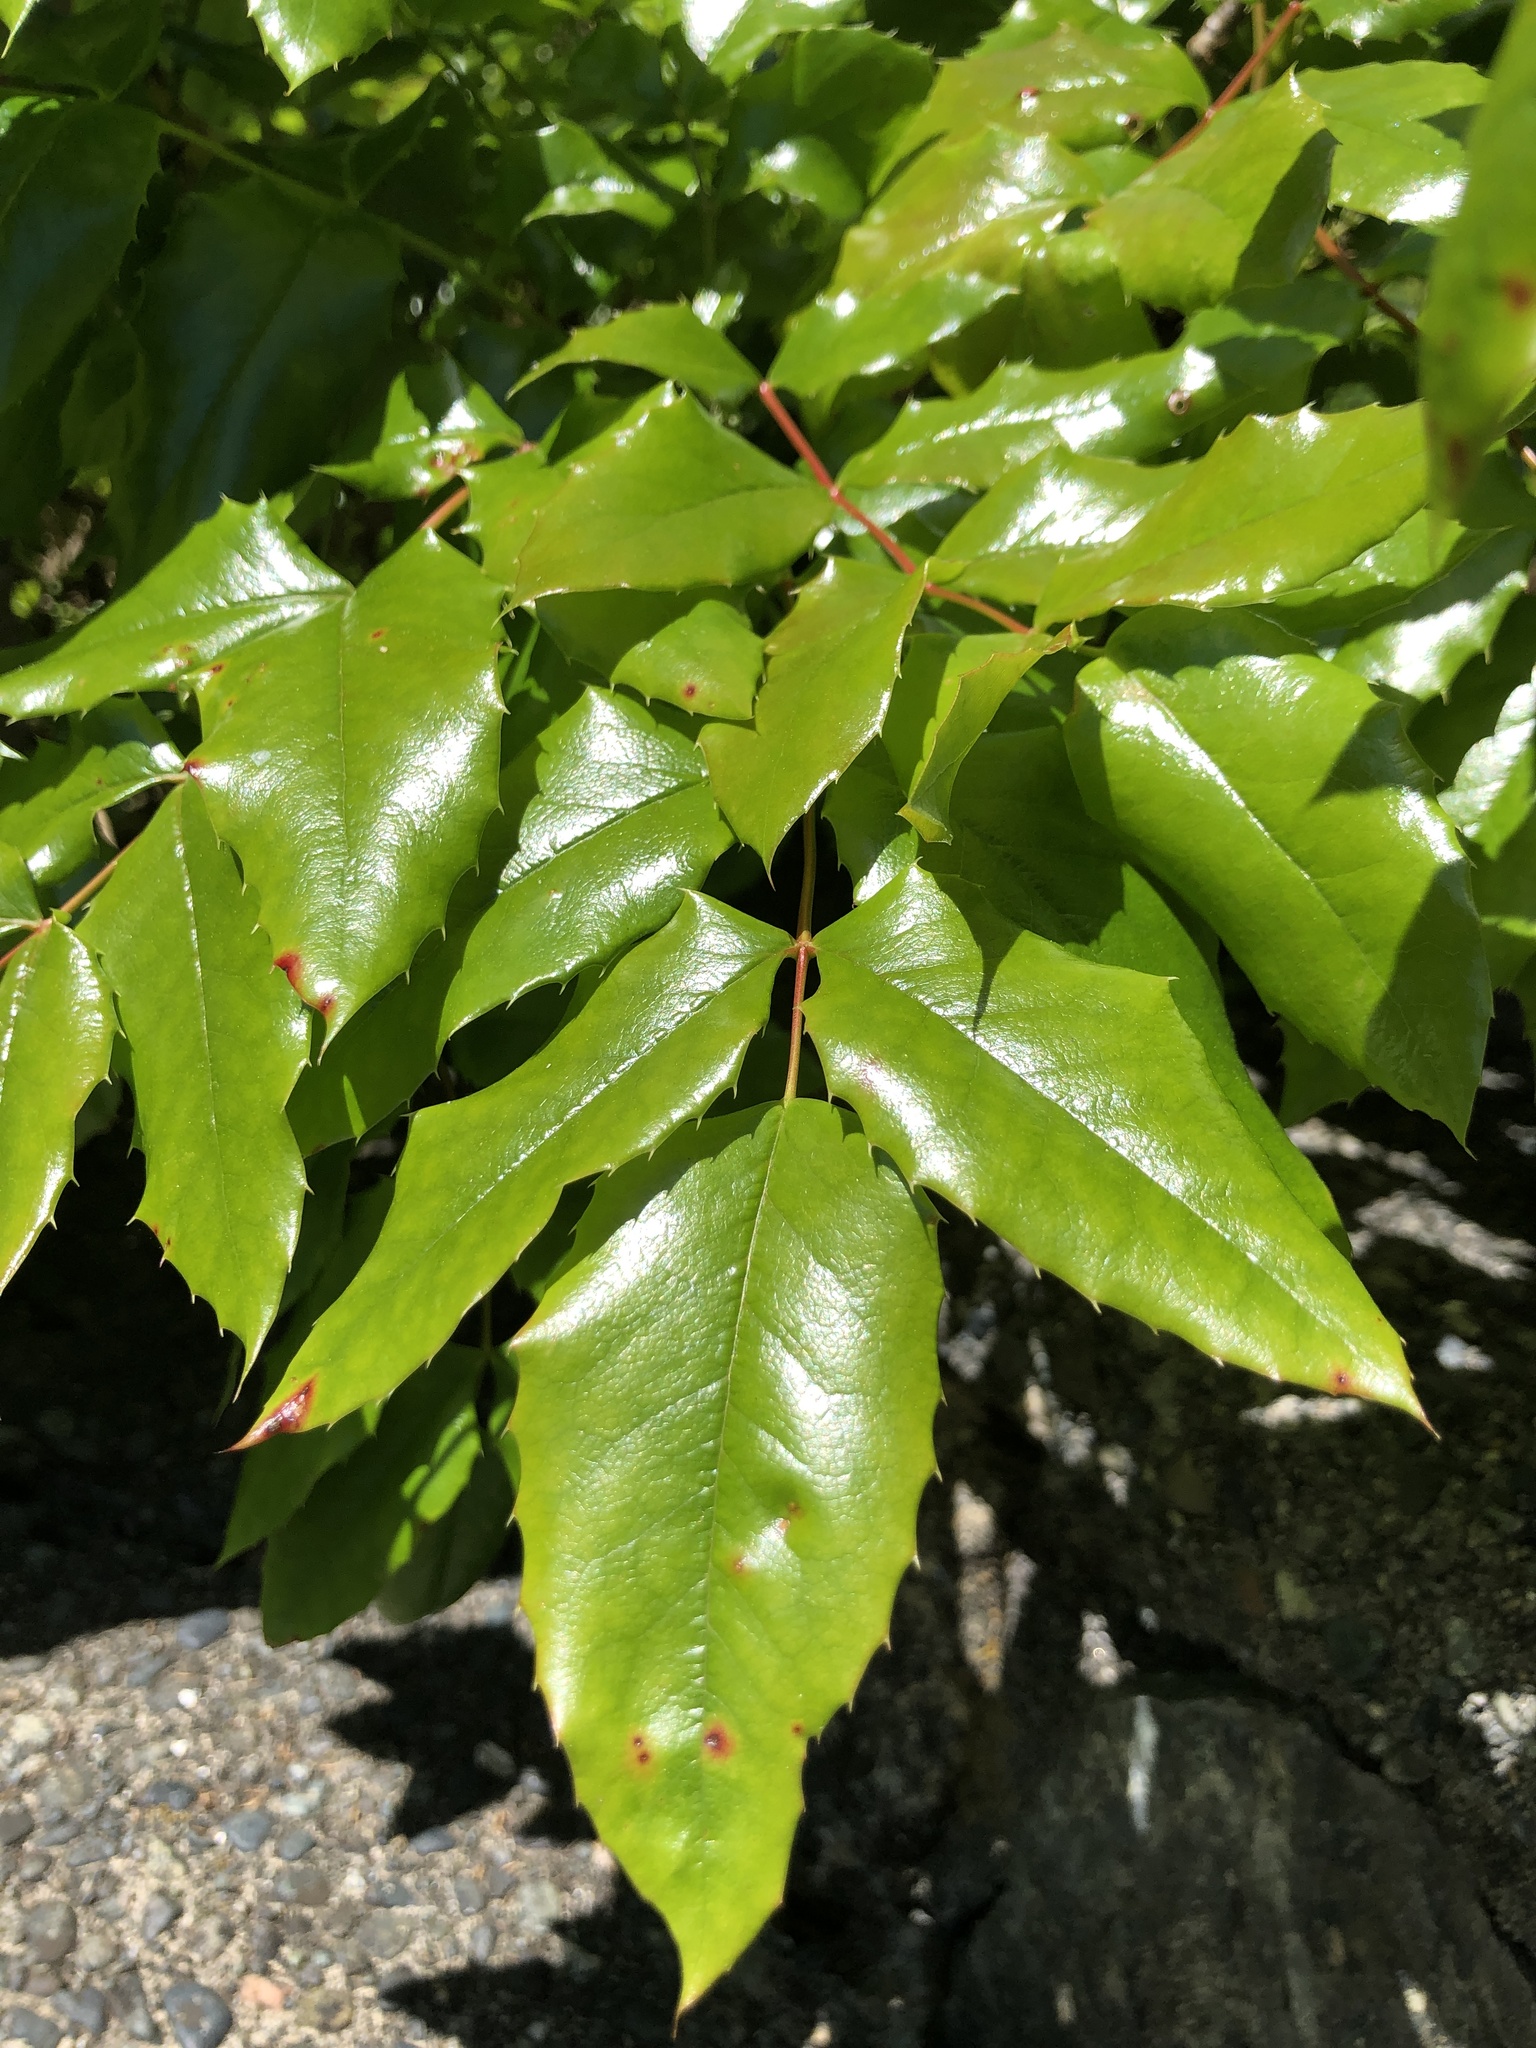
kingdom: Plantae
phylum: Tracheophyta
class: Magnoliopsida
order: Ranunculales
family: Berberidaceae
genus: Mahonia
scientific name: Mahonia aquifolium
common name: Oregon-grape
